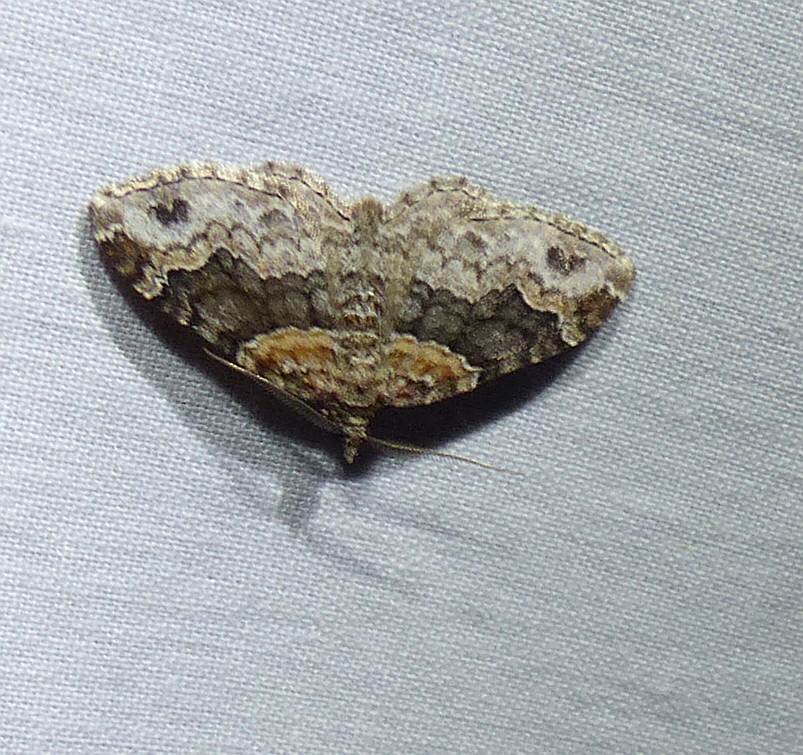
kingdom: Animalia
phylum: Arthropoda
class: Insecta
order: Lepidoptera
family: Geometridae
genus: Xanthorhoe
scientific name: Xanthorhoe ferrugata
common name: Dark-barred twin-spot carpet
